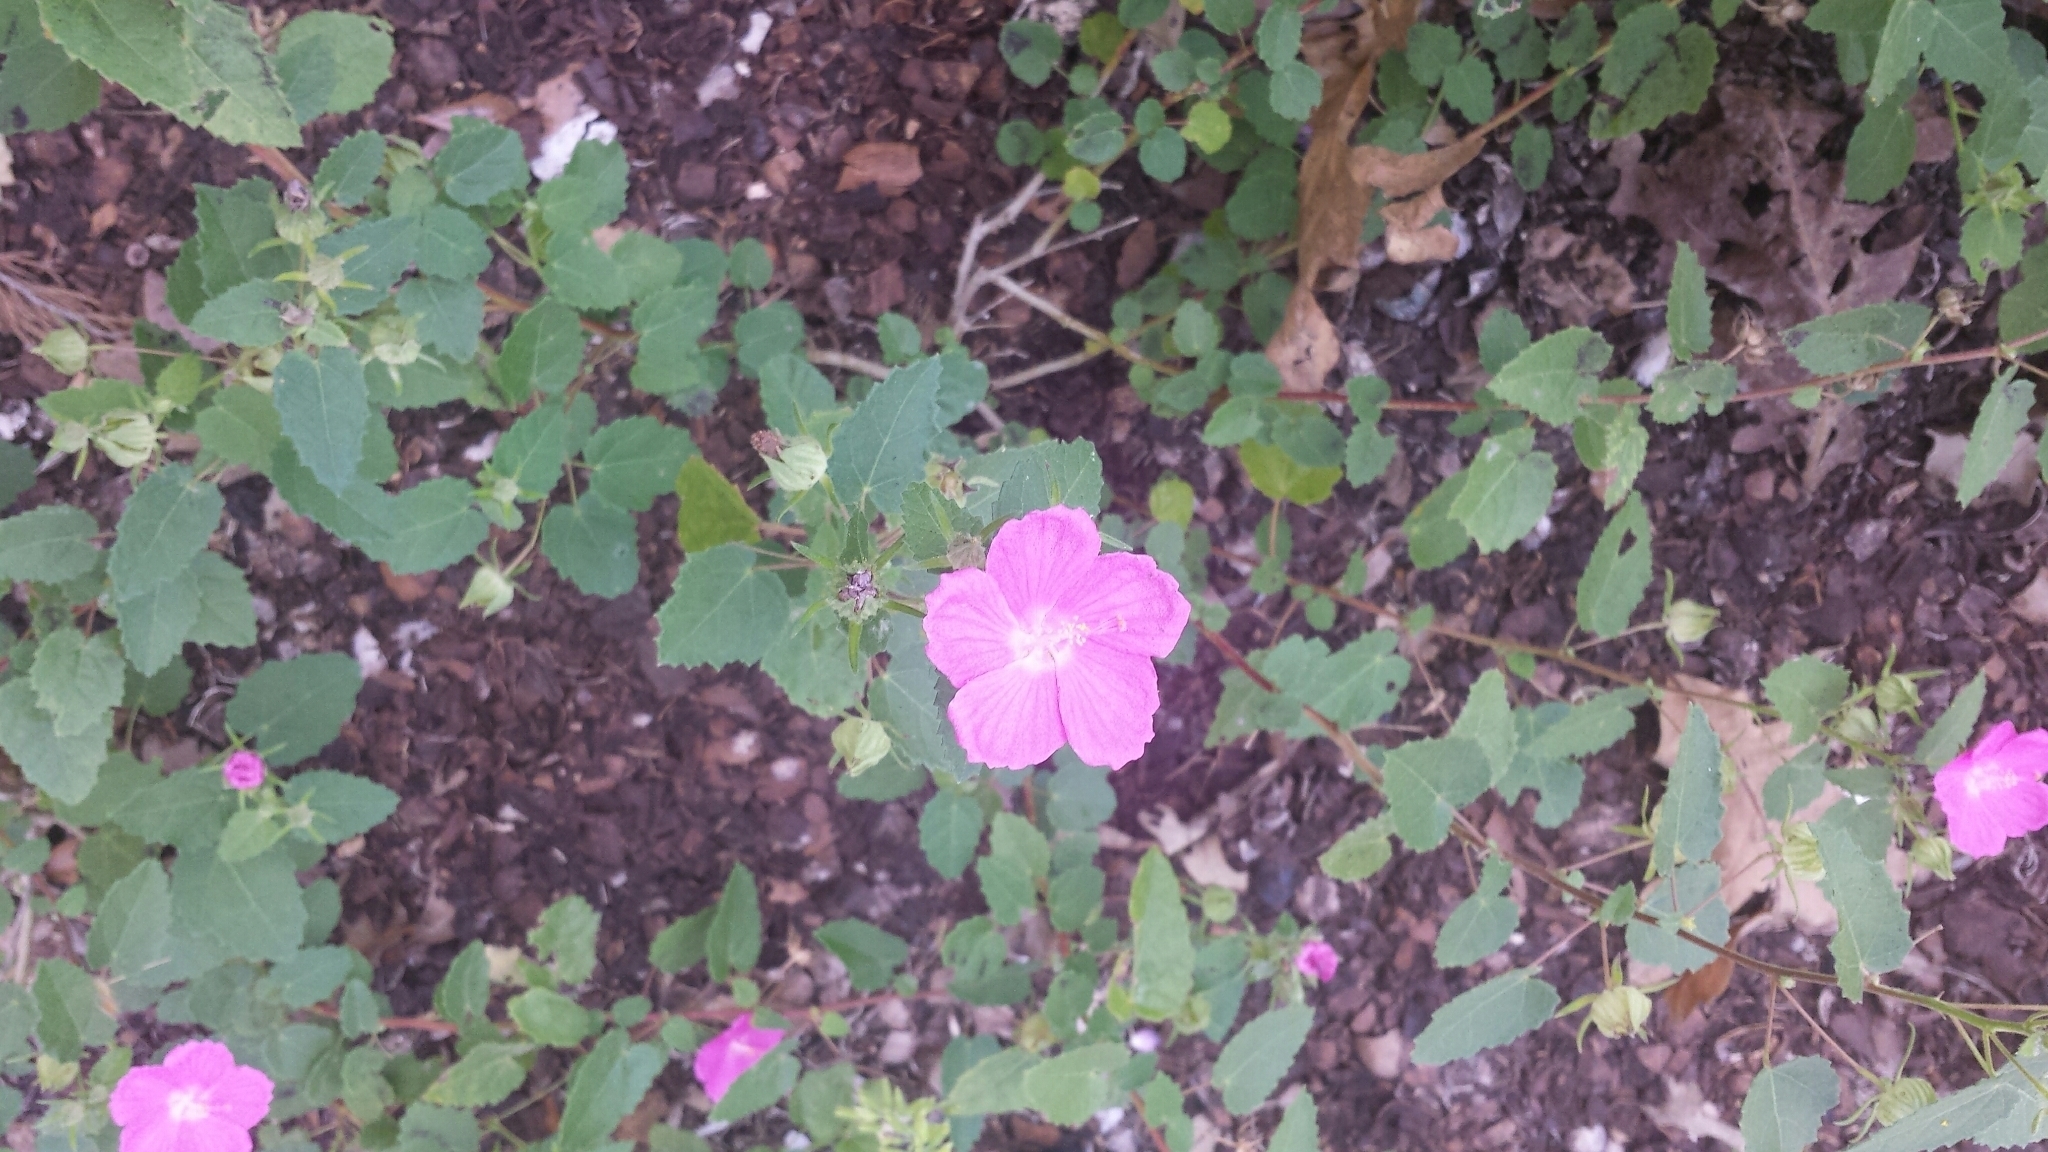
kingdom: Plantae
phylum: Tracheophyta
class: Magnoliopsida
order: Malvales
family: Malvaceae
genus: Pavonia
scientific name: Pavonia lasiopetala
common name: Texas swamp-mallow
